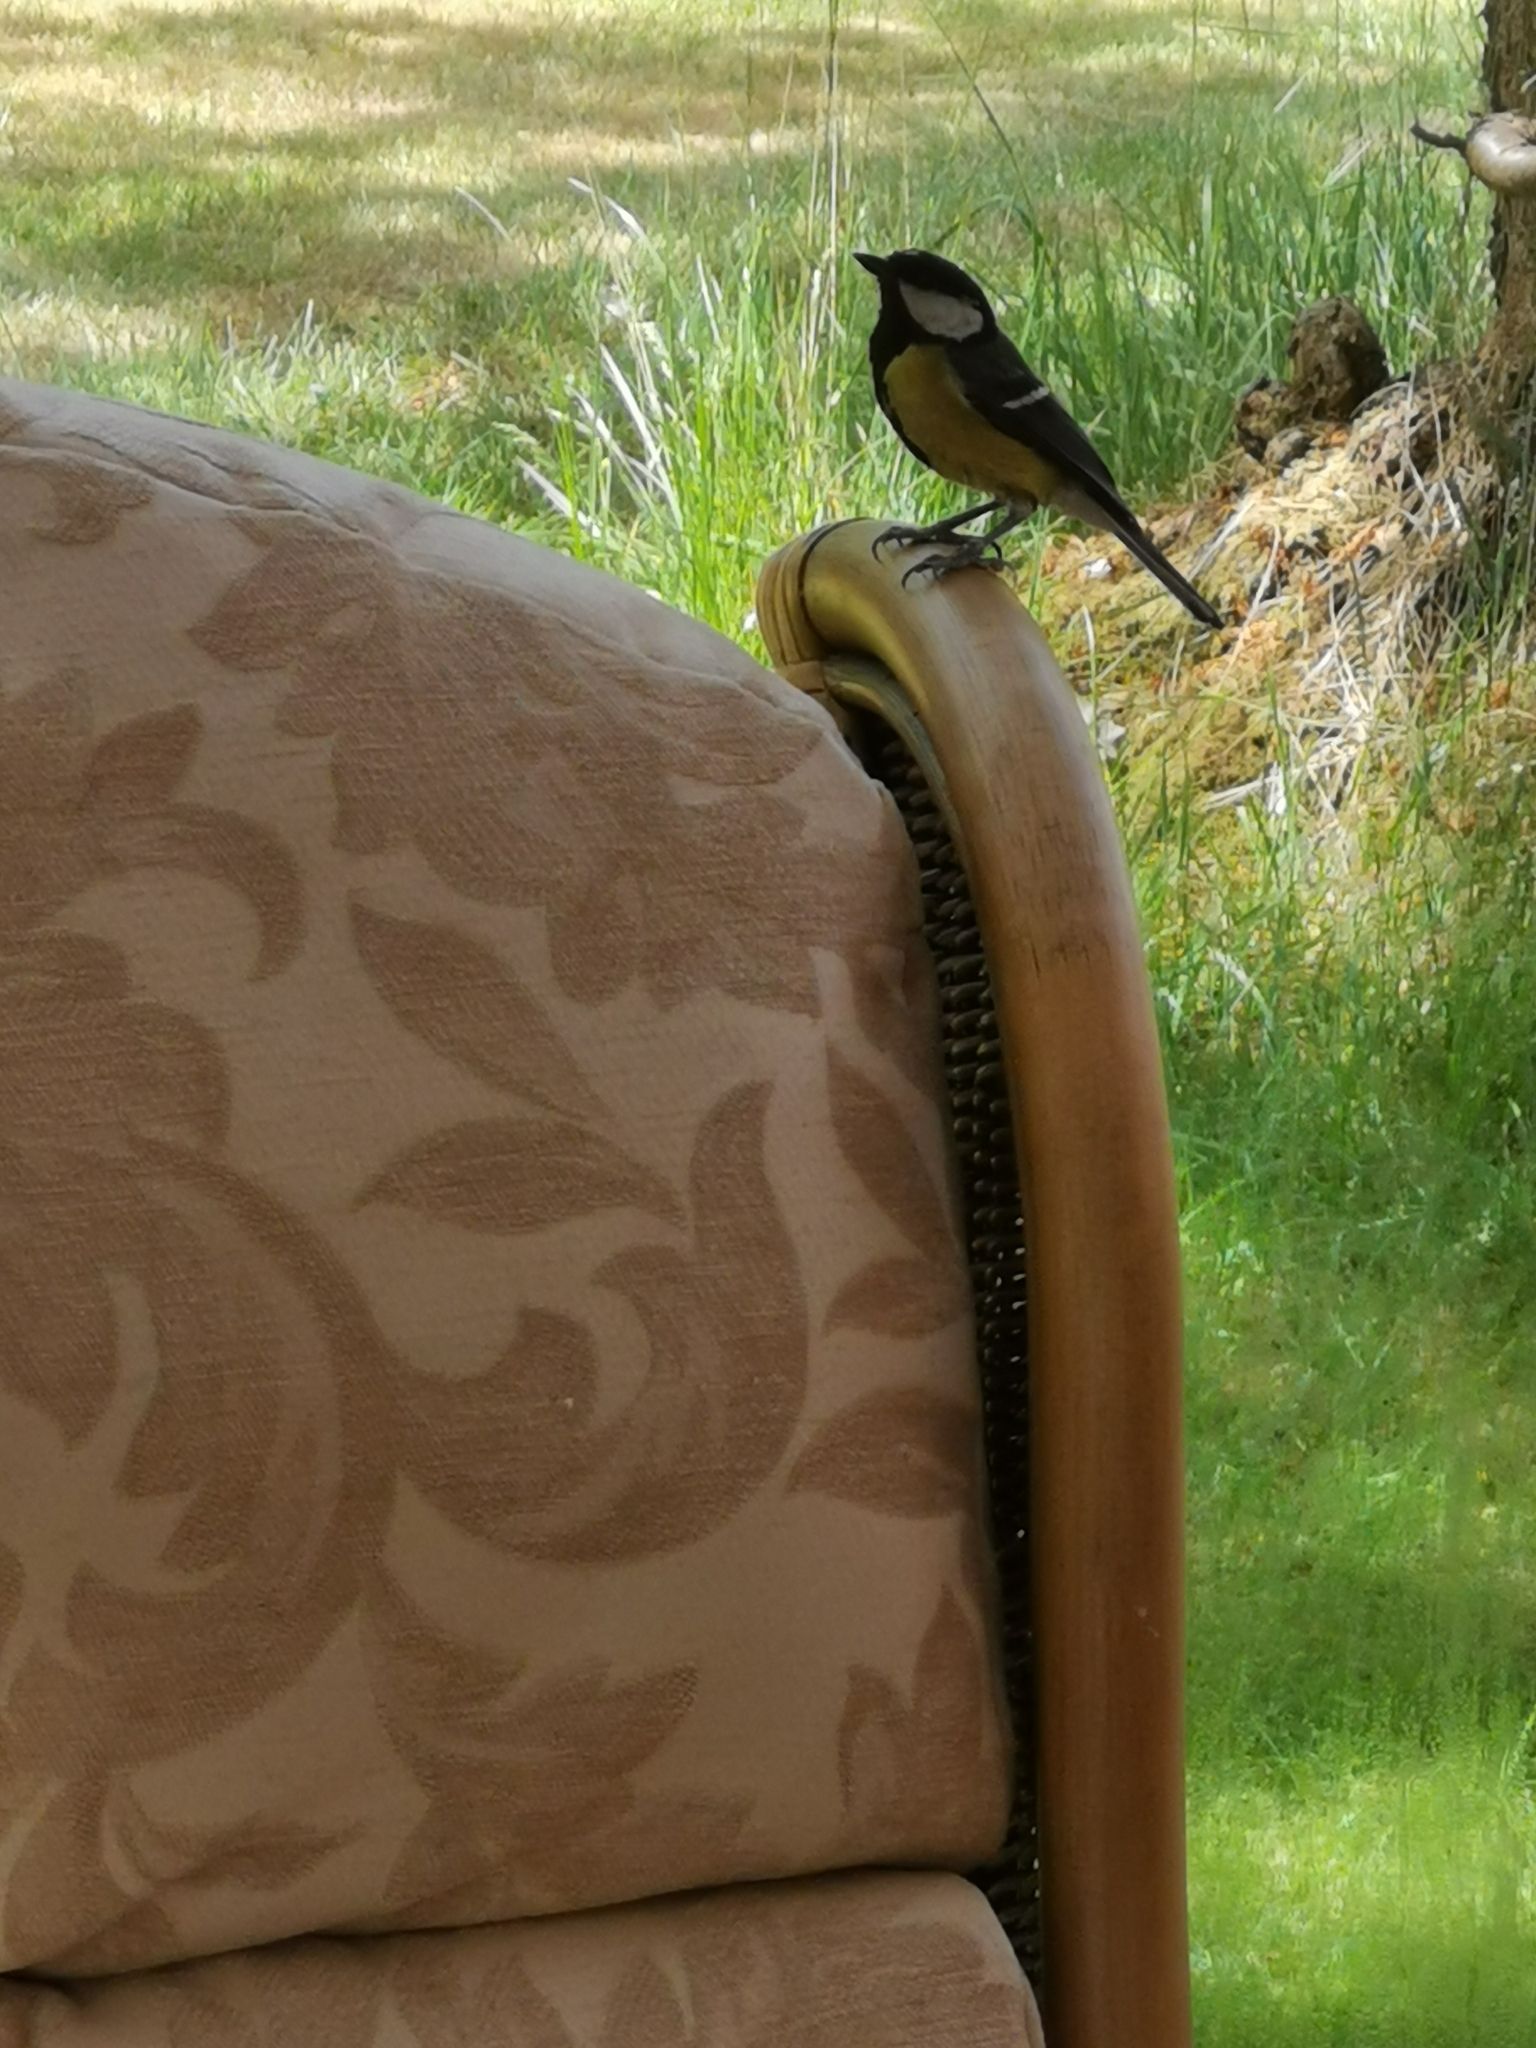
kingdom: Animalia
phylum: Chordata
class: Aves
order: Passeriformes
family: Paridae
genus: Parus
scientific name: Parus major
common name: Great tit
